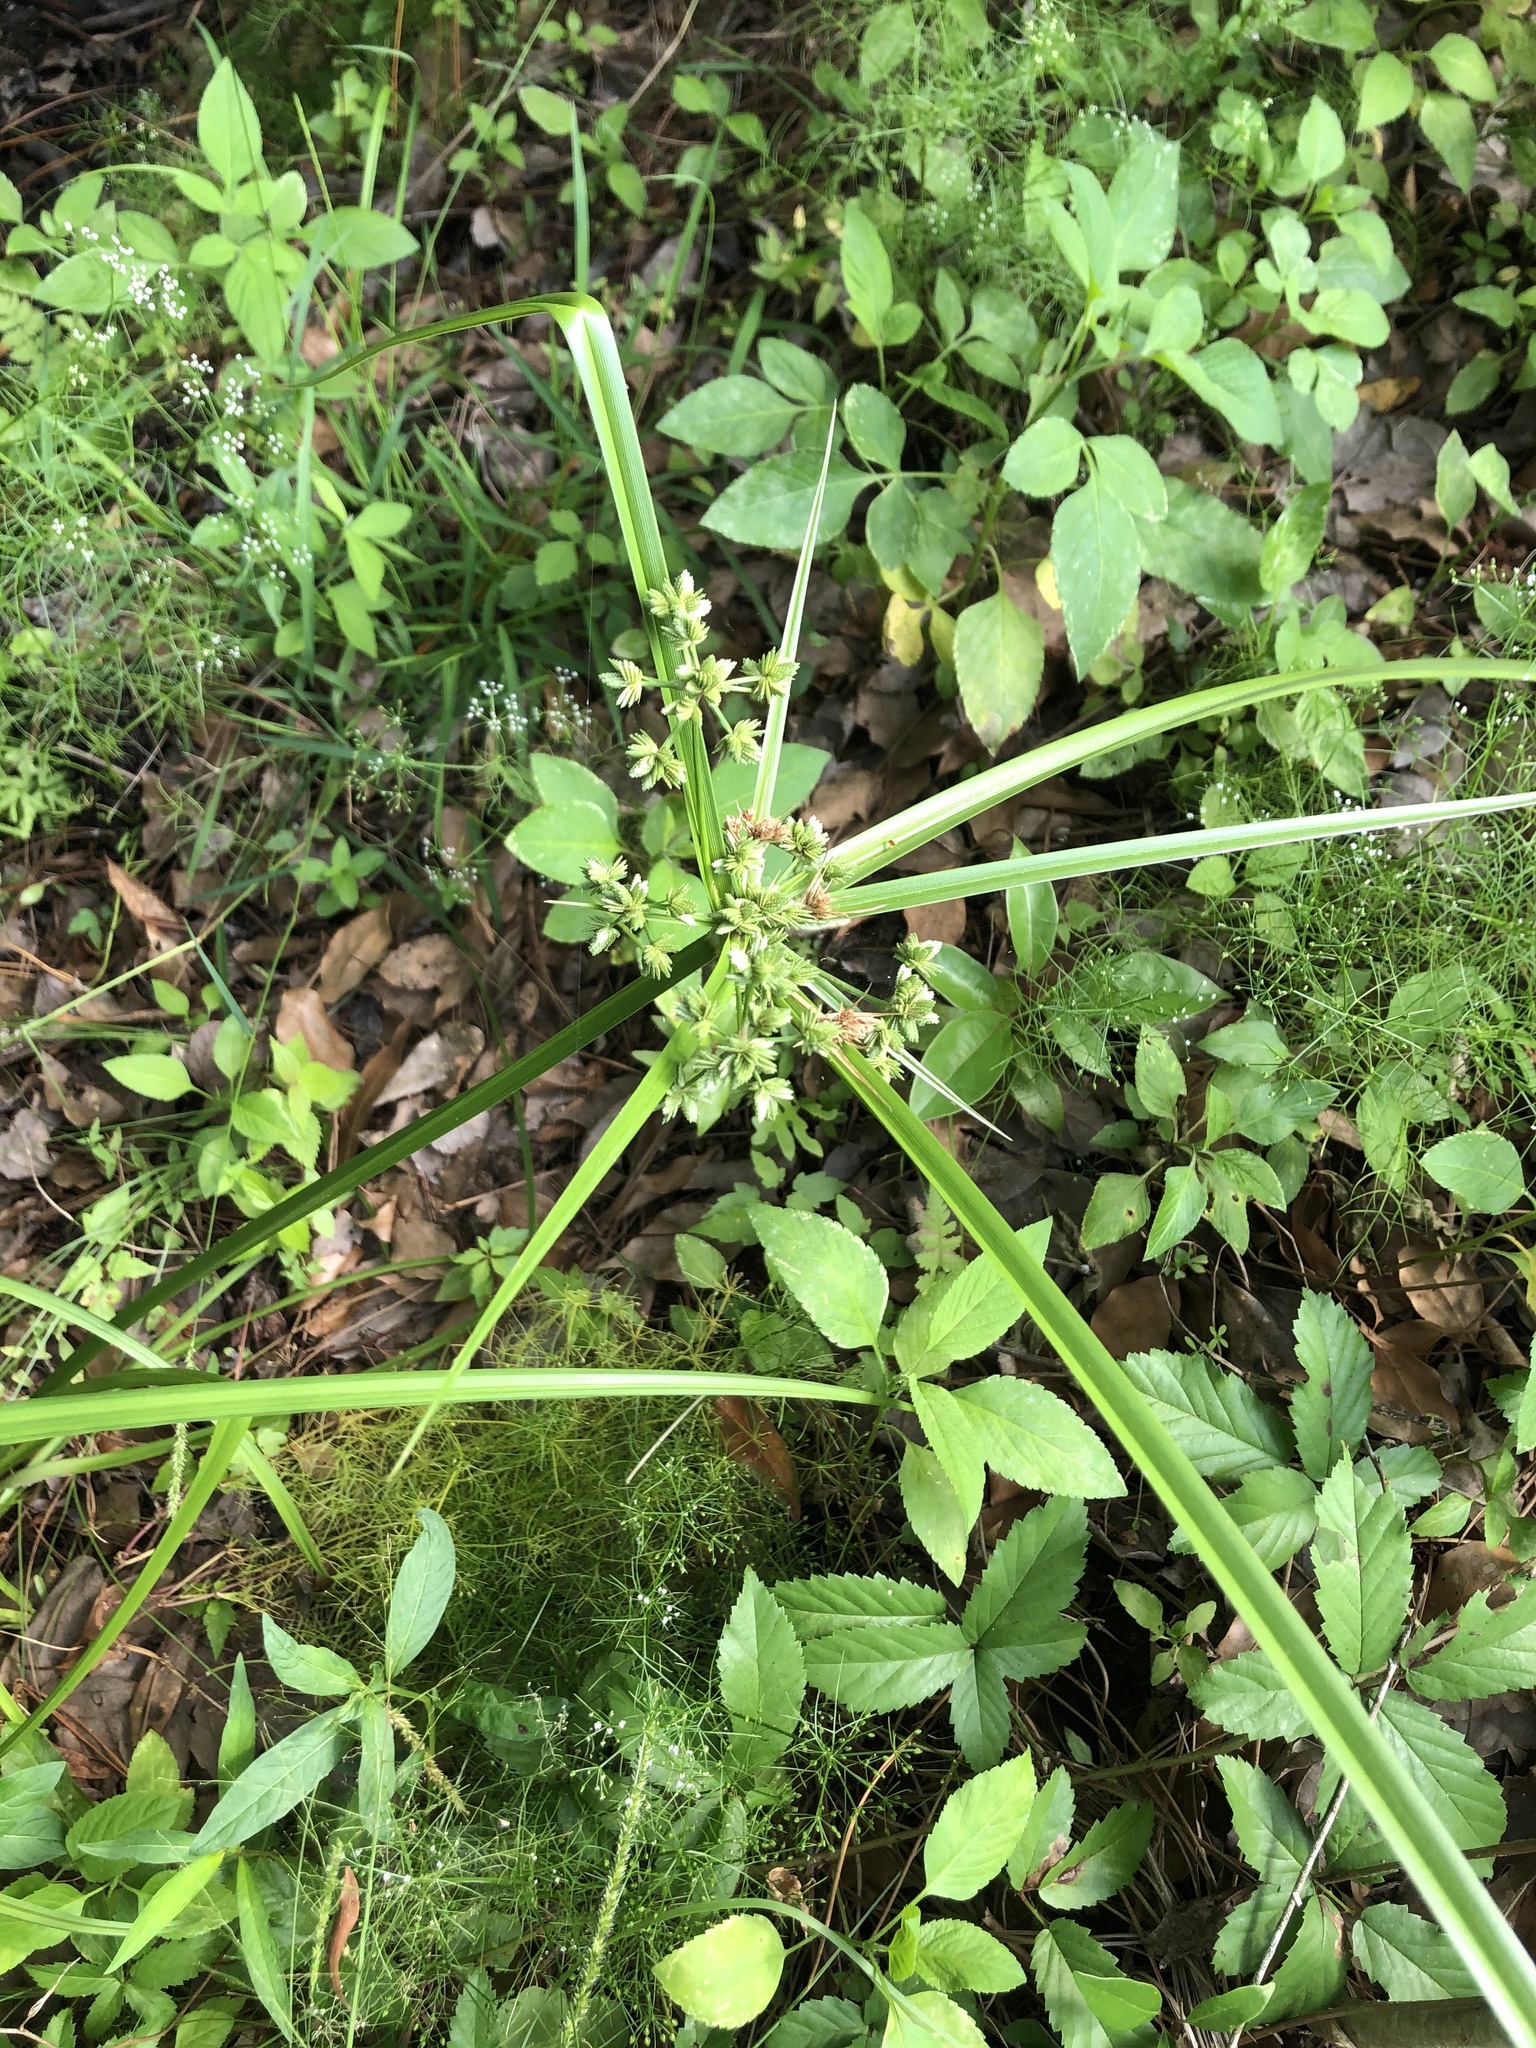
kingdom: Plantae
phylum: Tracheophyta
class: Liliopsida
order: Poales
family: Cyperaceae
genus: Cyperus
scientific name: Cyperus virens
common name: Green flatsedge
